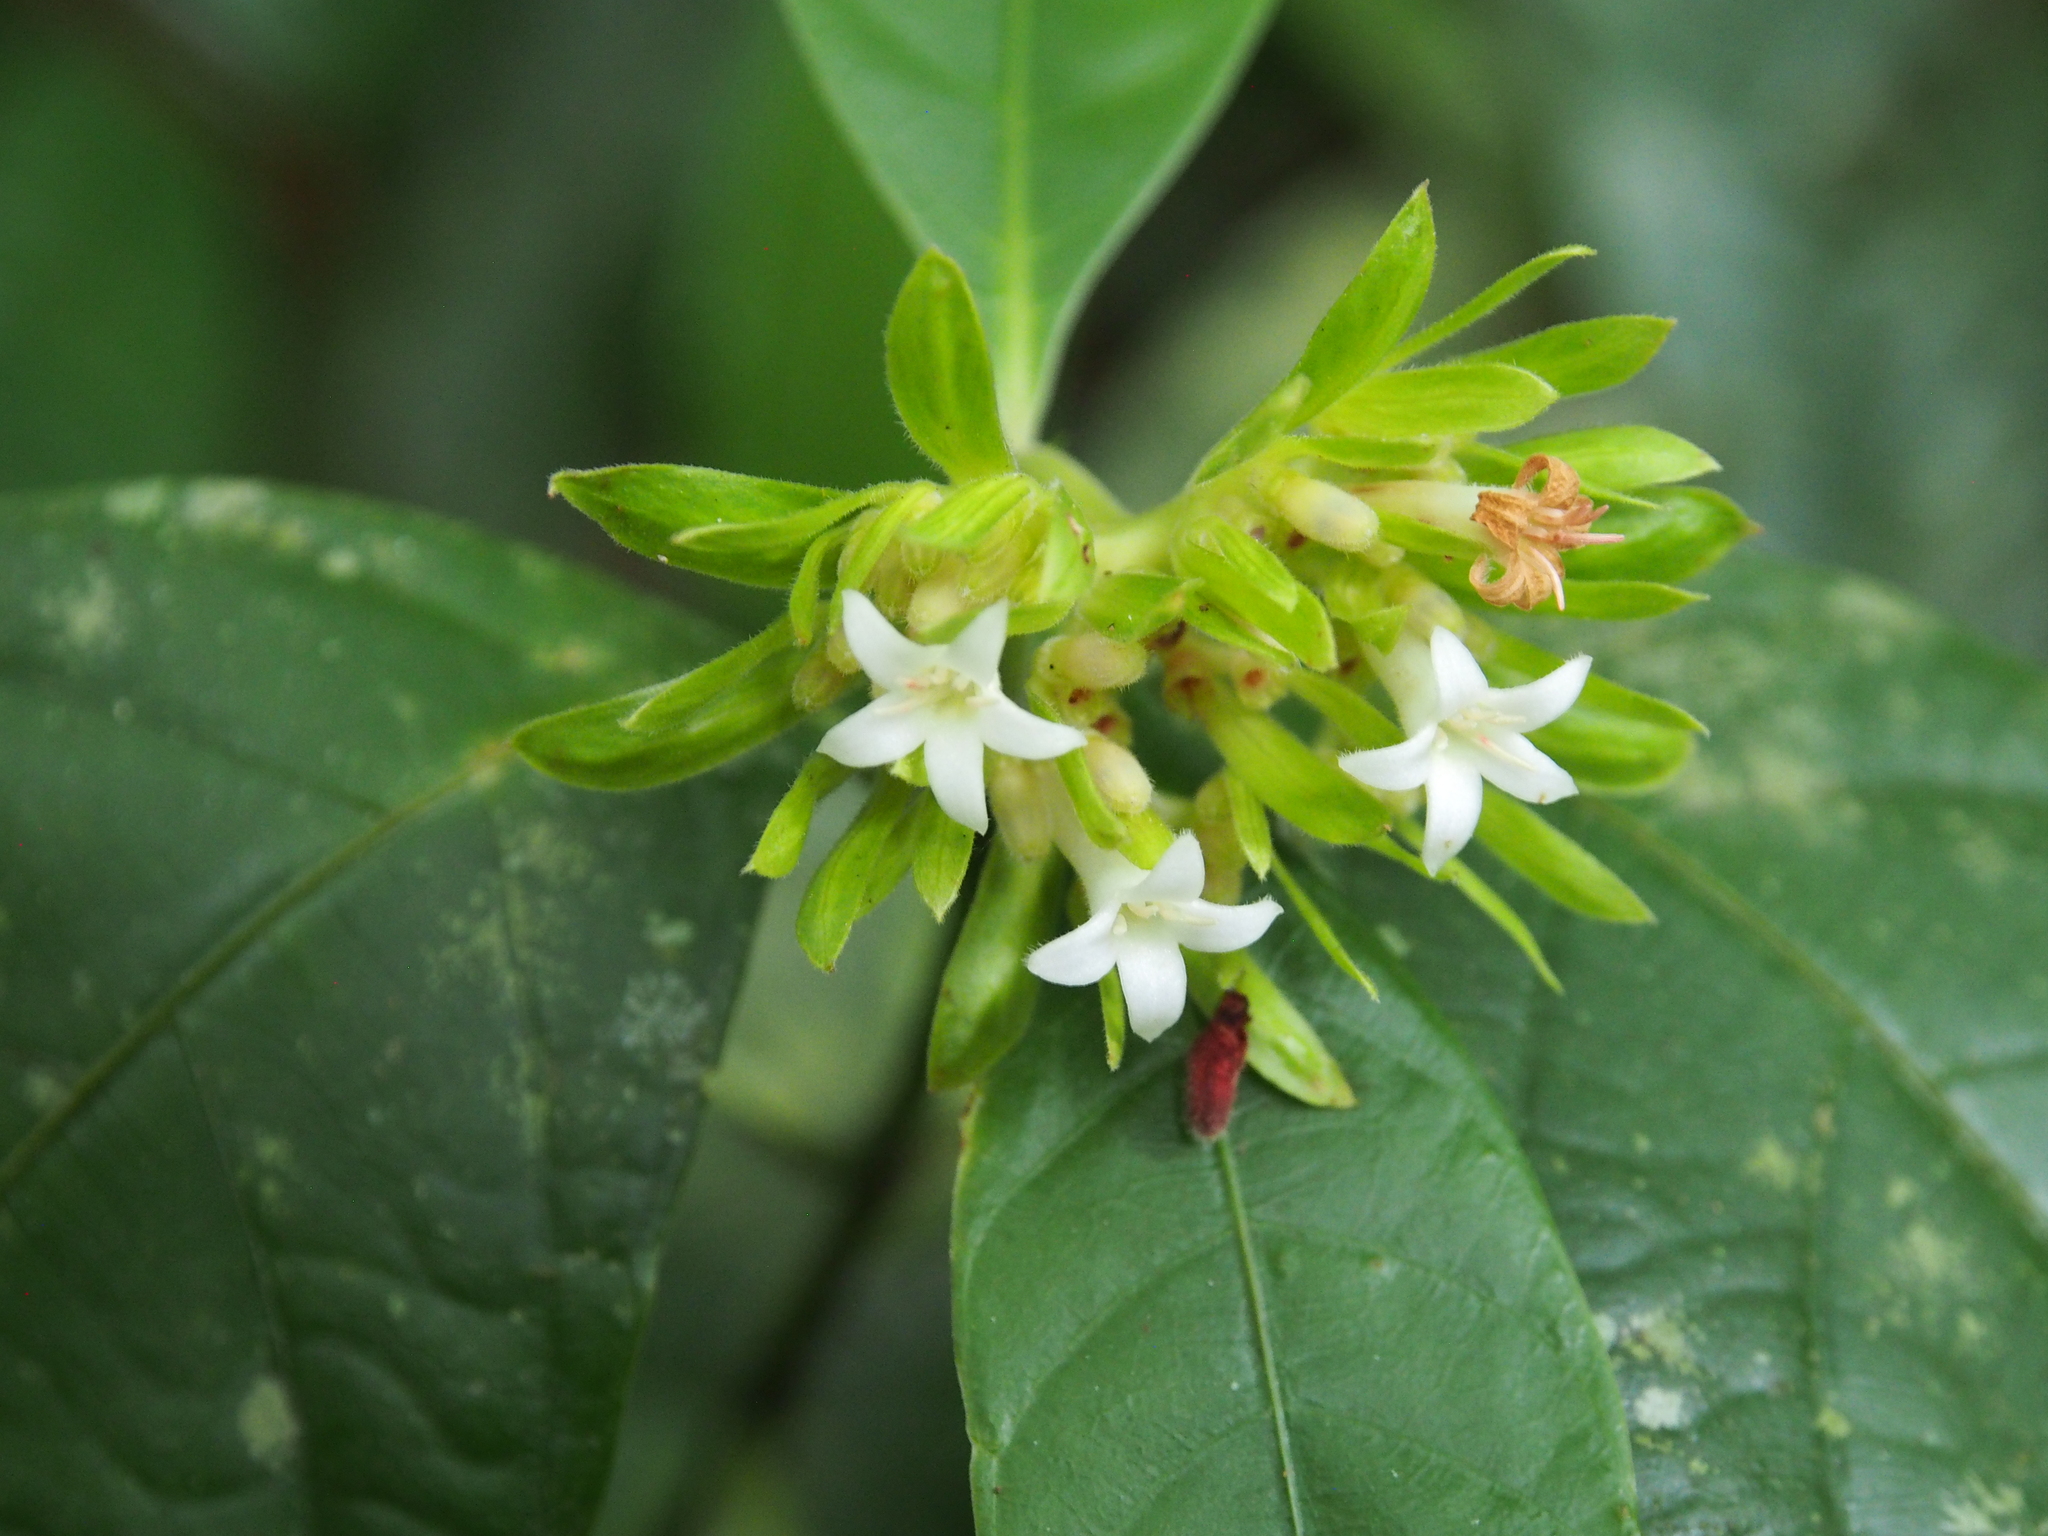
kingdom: Plantae
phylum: Tracheophyta
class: Magnoliopsida
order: Gentianales
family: Rubiaceae
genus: Palicourea
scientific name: Palicourea suerrensis
